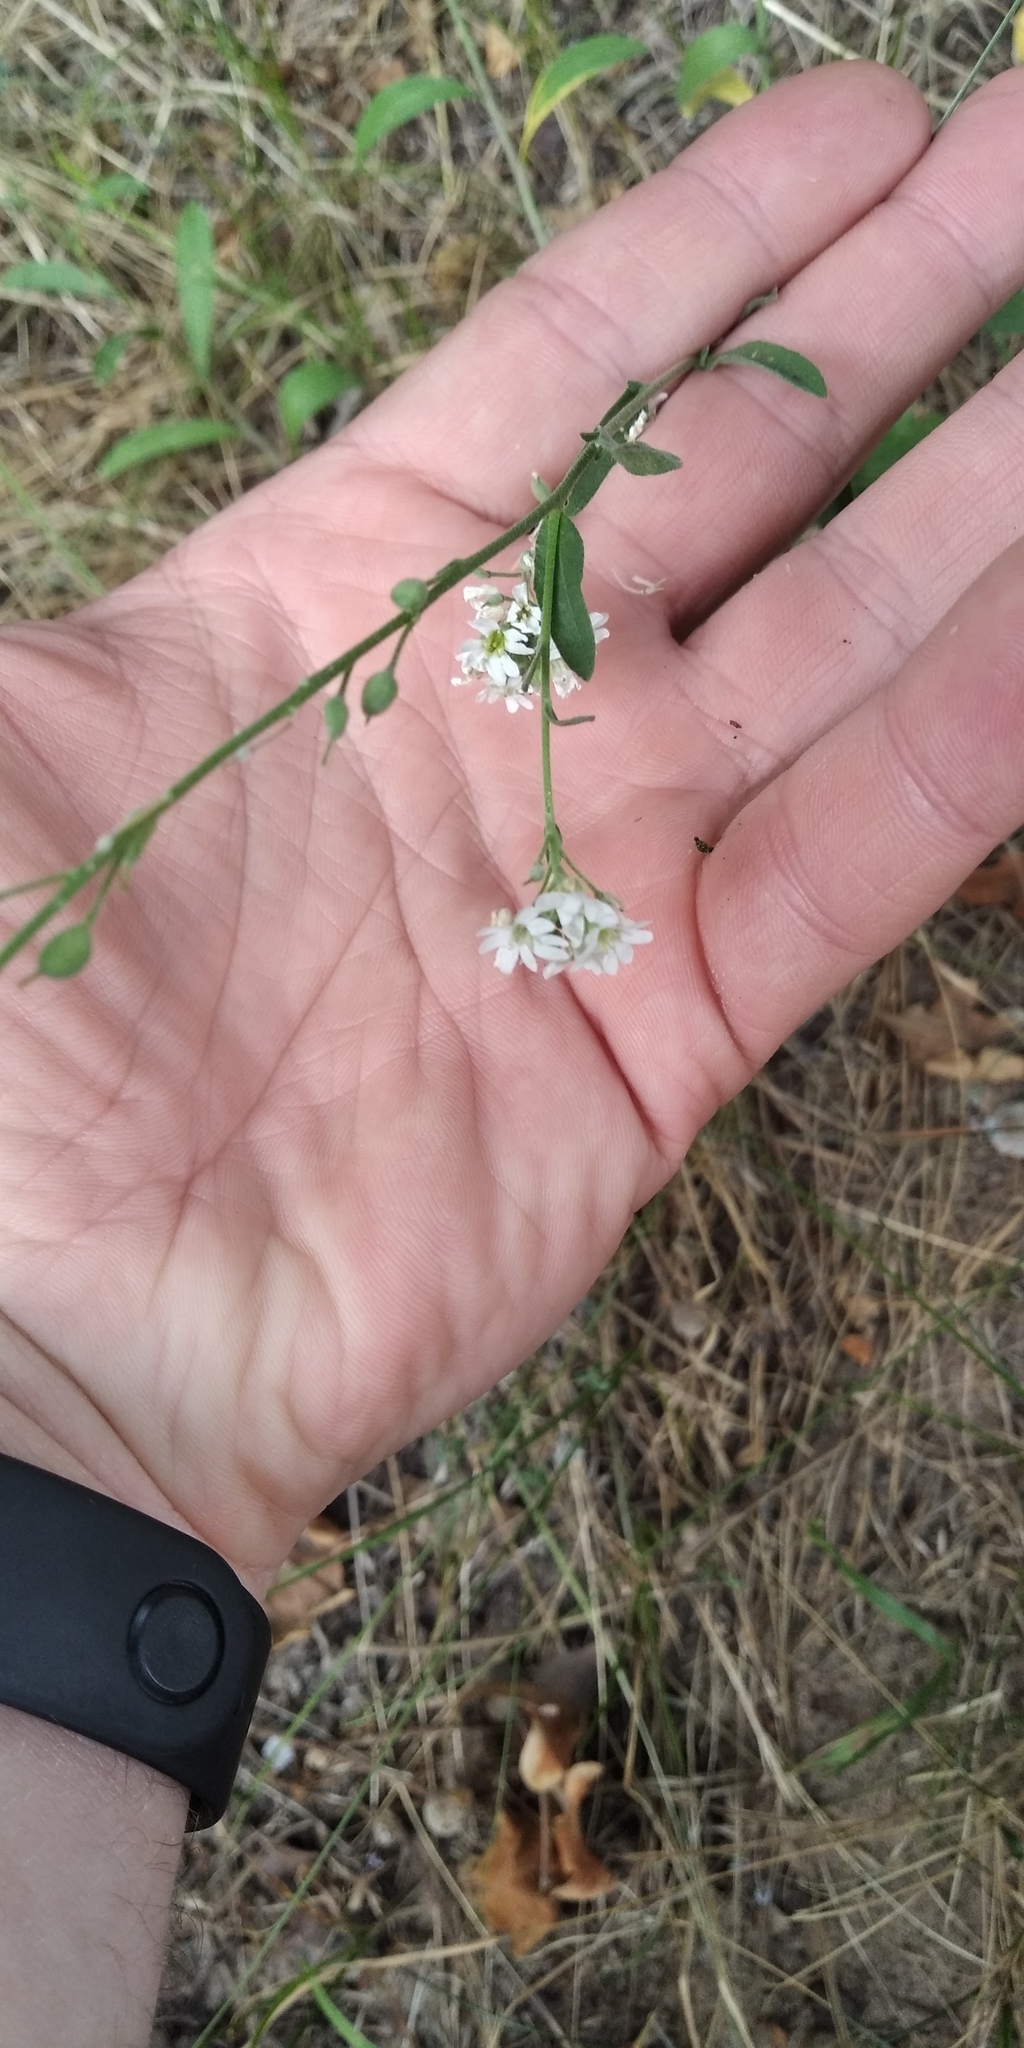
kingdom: Plantae
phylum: Tracheophyta
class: Magnoliopsida
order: Brassicales
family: Brassicaceae
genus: Berteroa
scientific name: Berteroa incana
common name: Hoary alison
